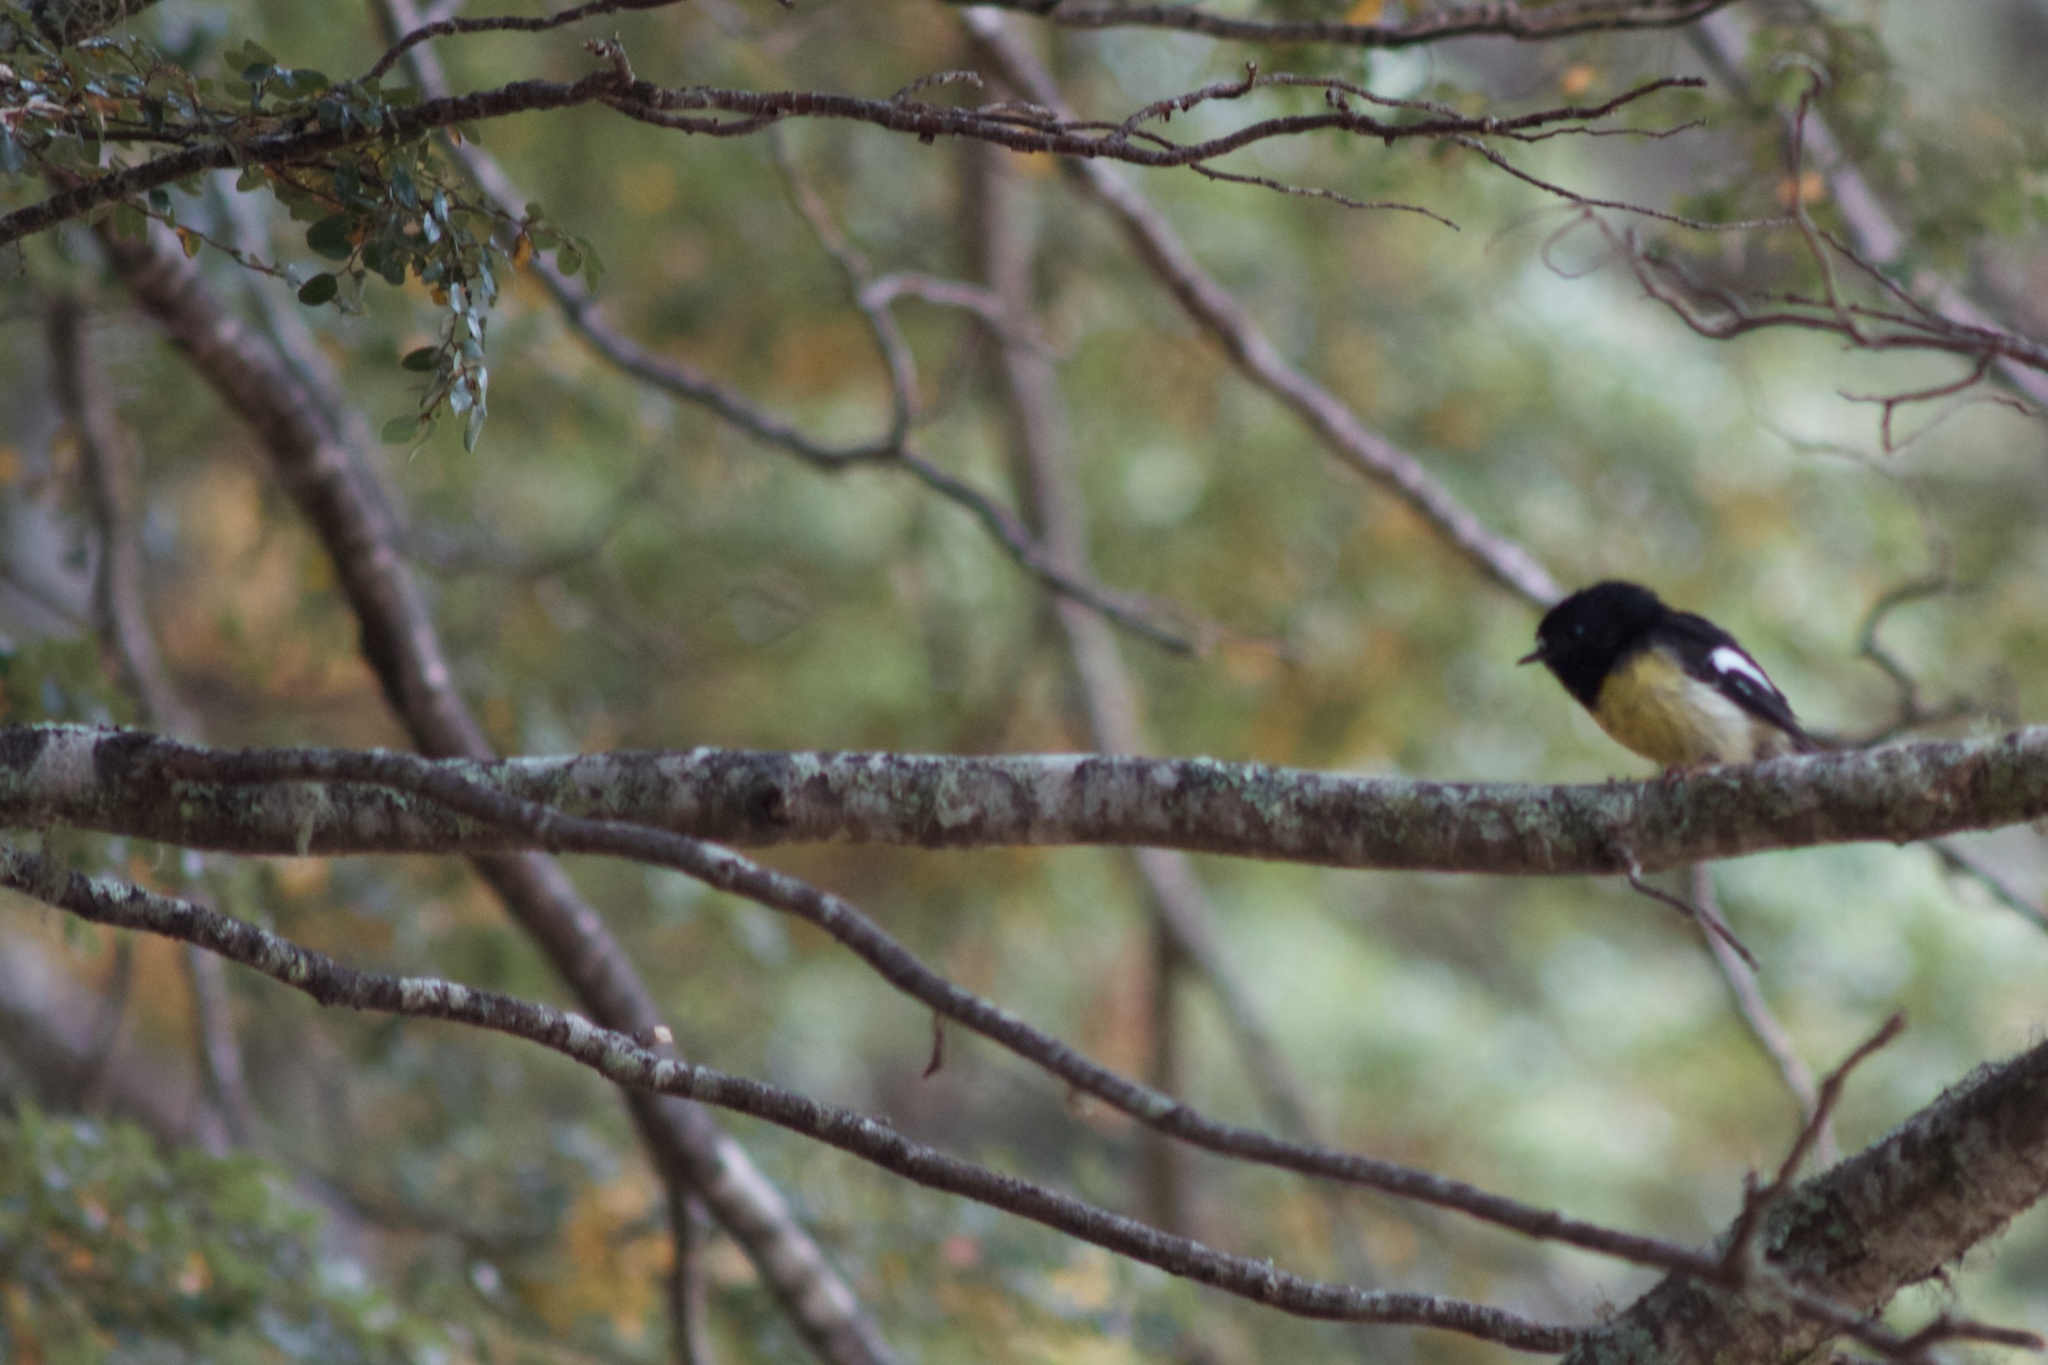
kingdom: Animalia
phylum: Chordata
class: Aves
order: Passeriformes
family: Petroicidae
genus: Petroica
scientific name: Petroica macrocephala
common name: Tomtit
